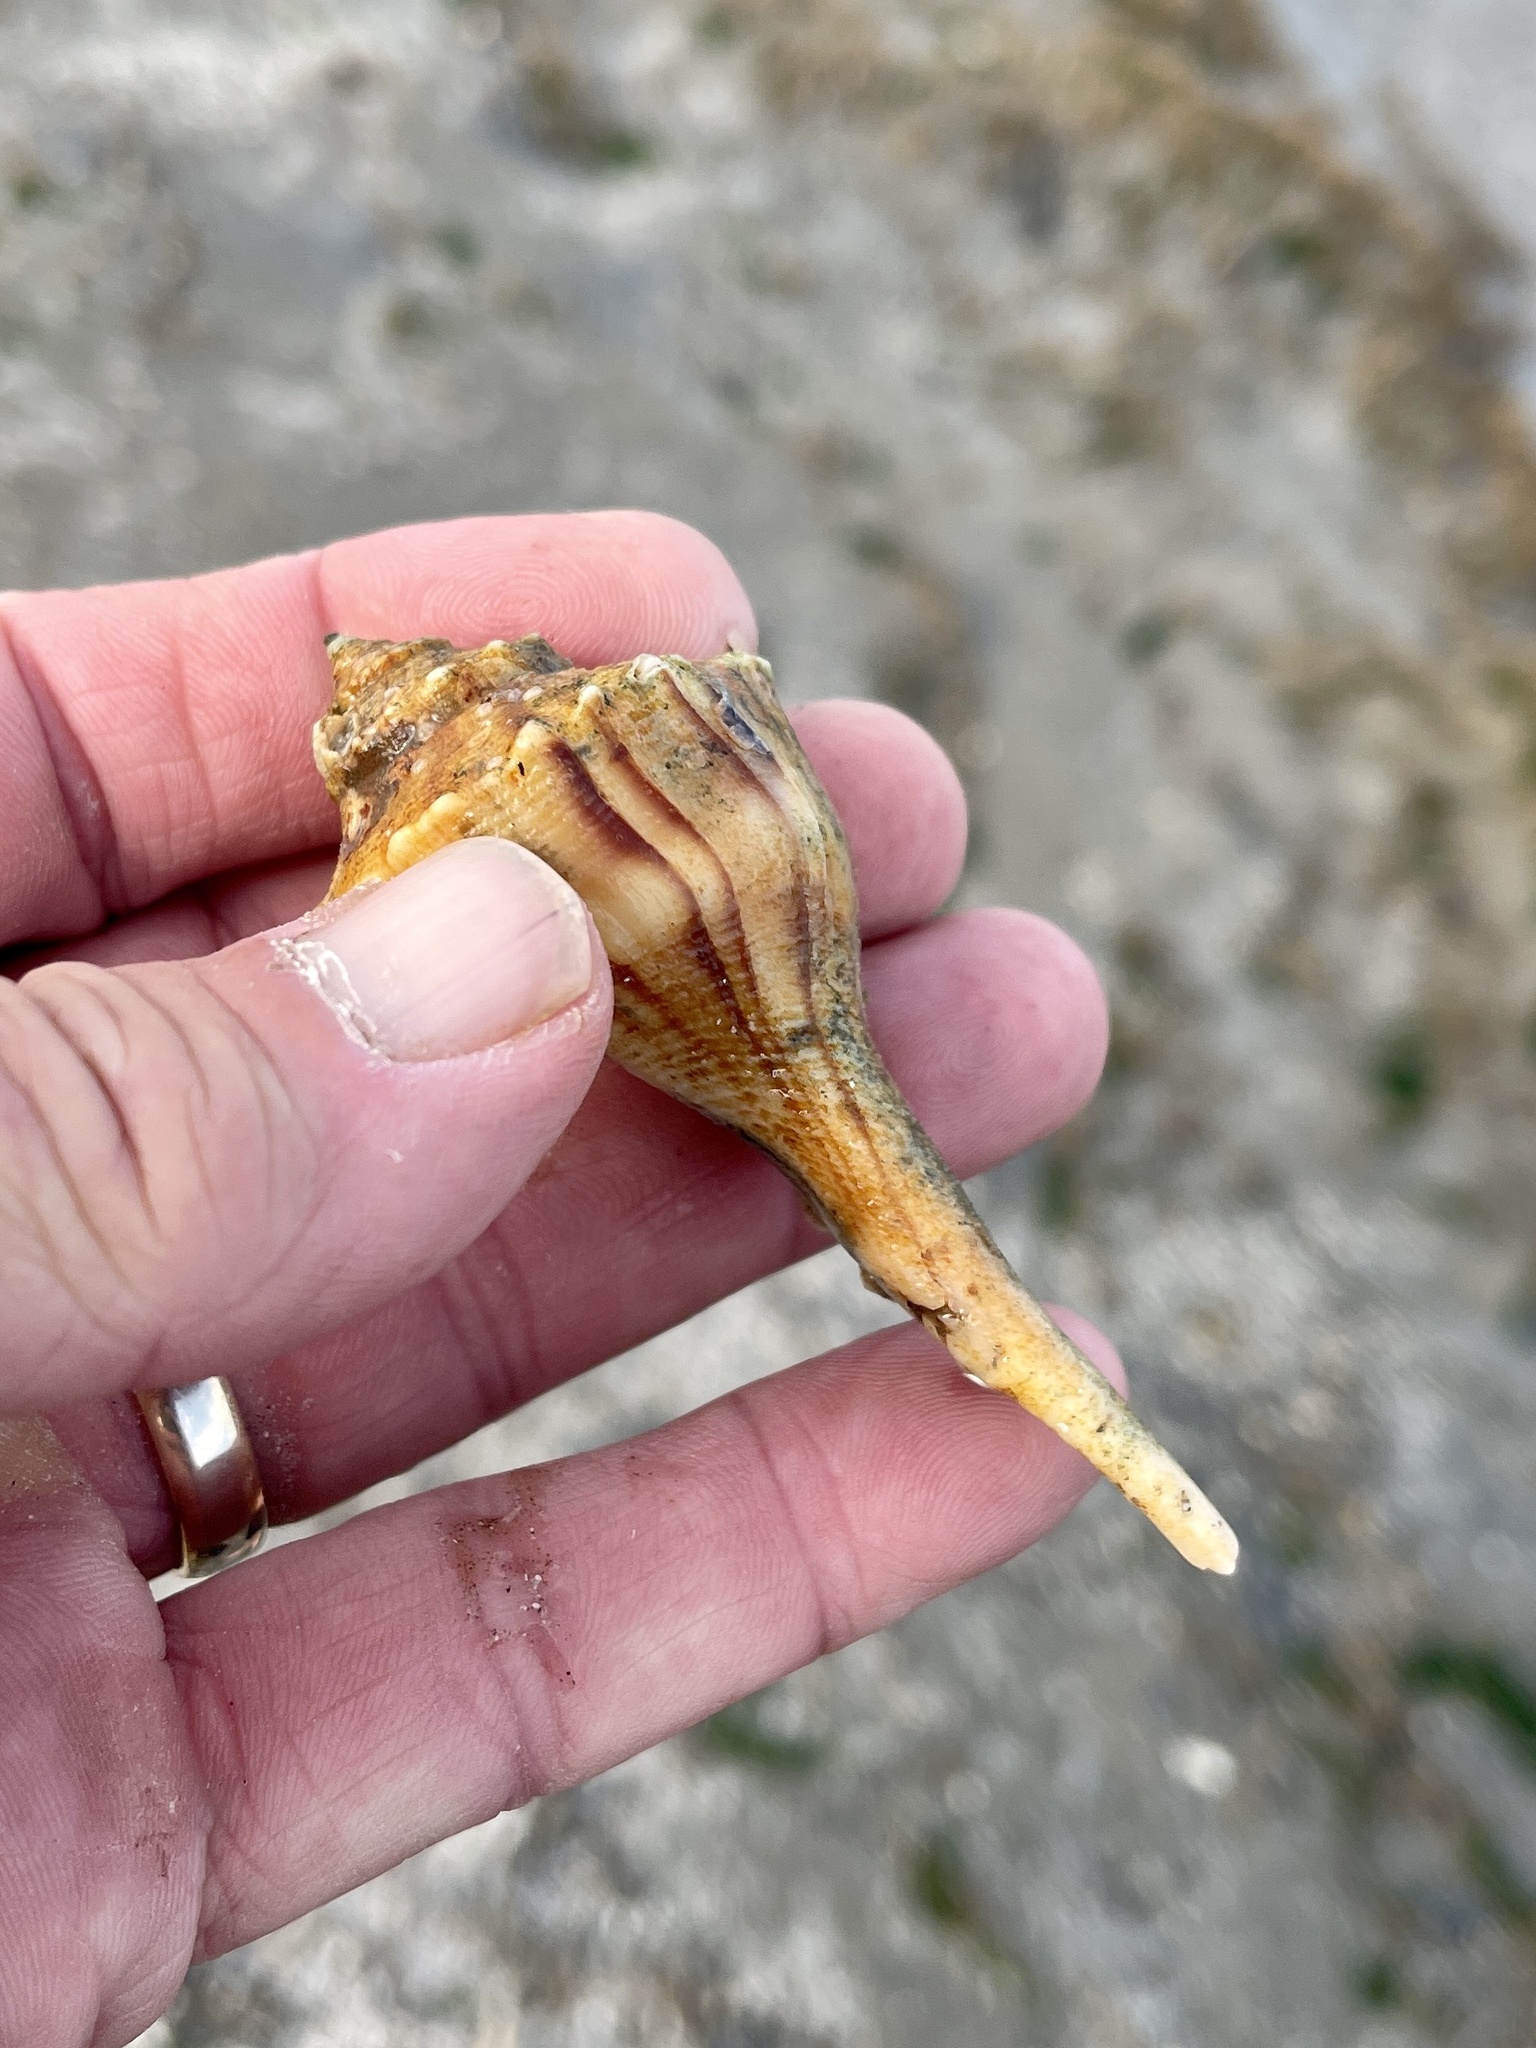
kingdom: Animalia
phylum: Mollusca
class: Gastropoda
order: Neogastropoda
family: Busyconidae
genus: Sinistrofulgur
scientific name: Sinistrofulgur pulleyi
